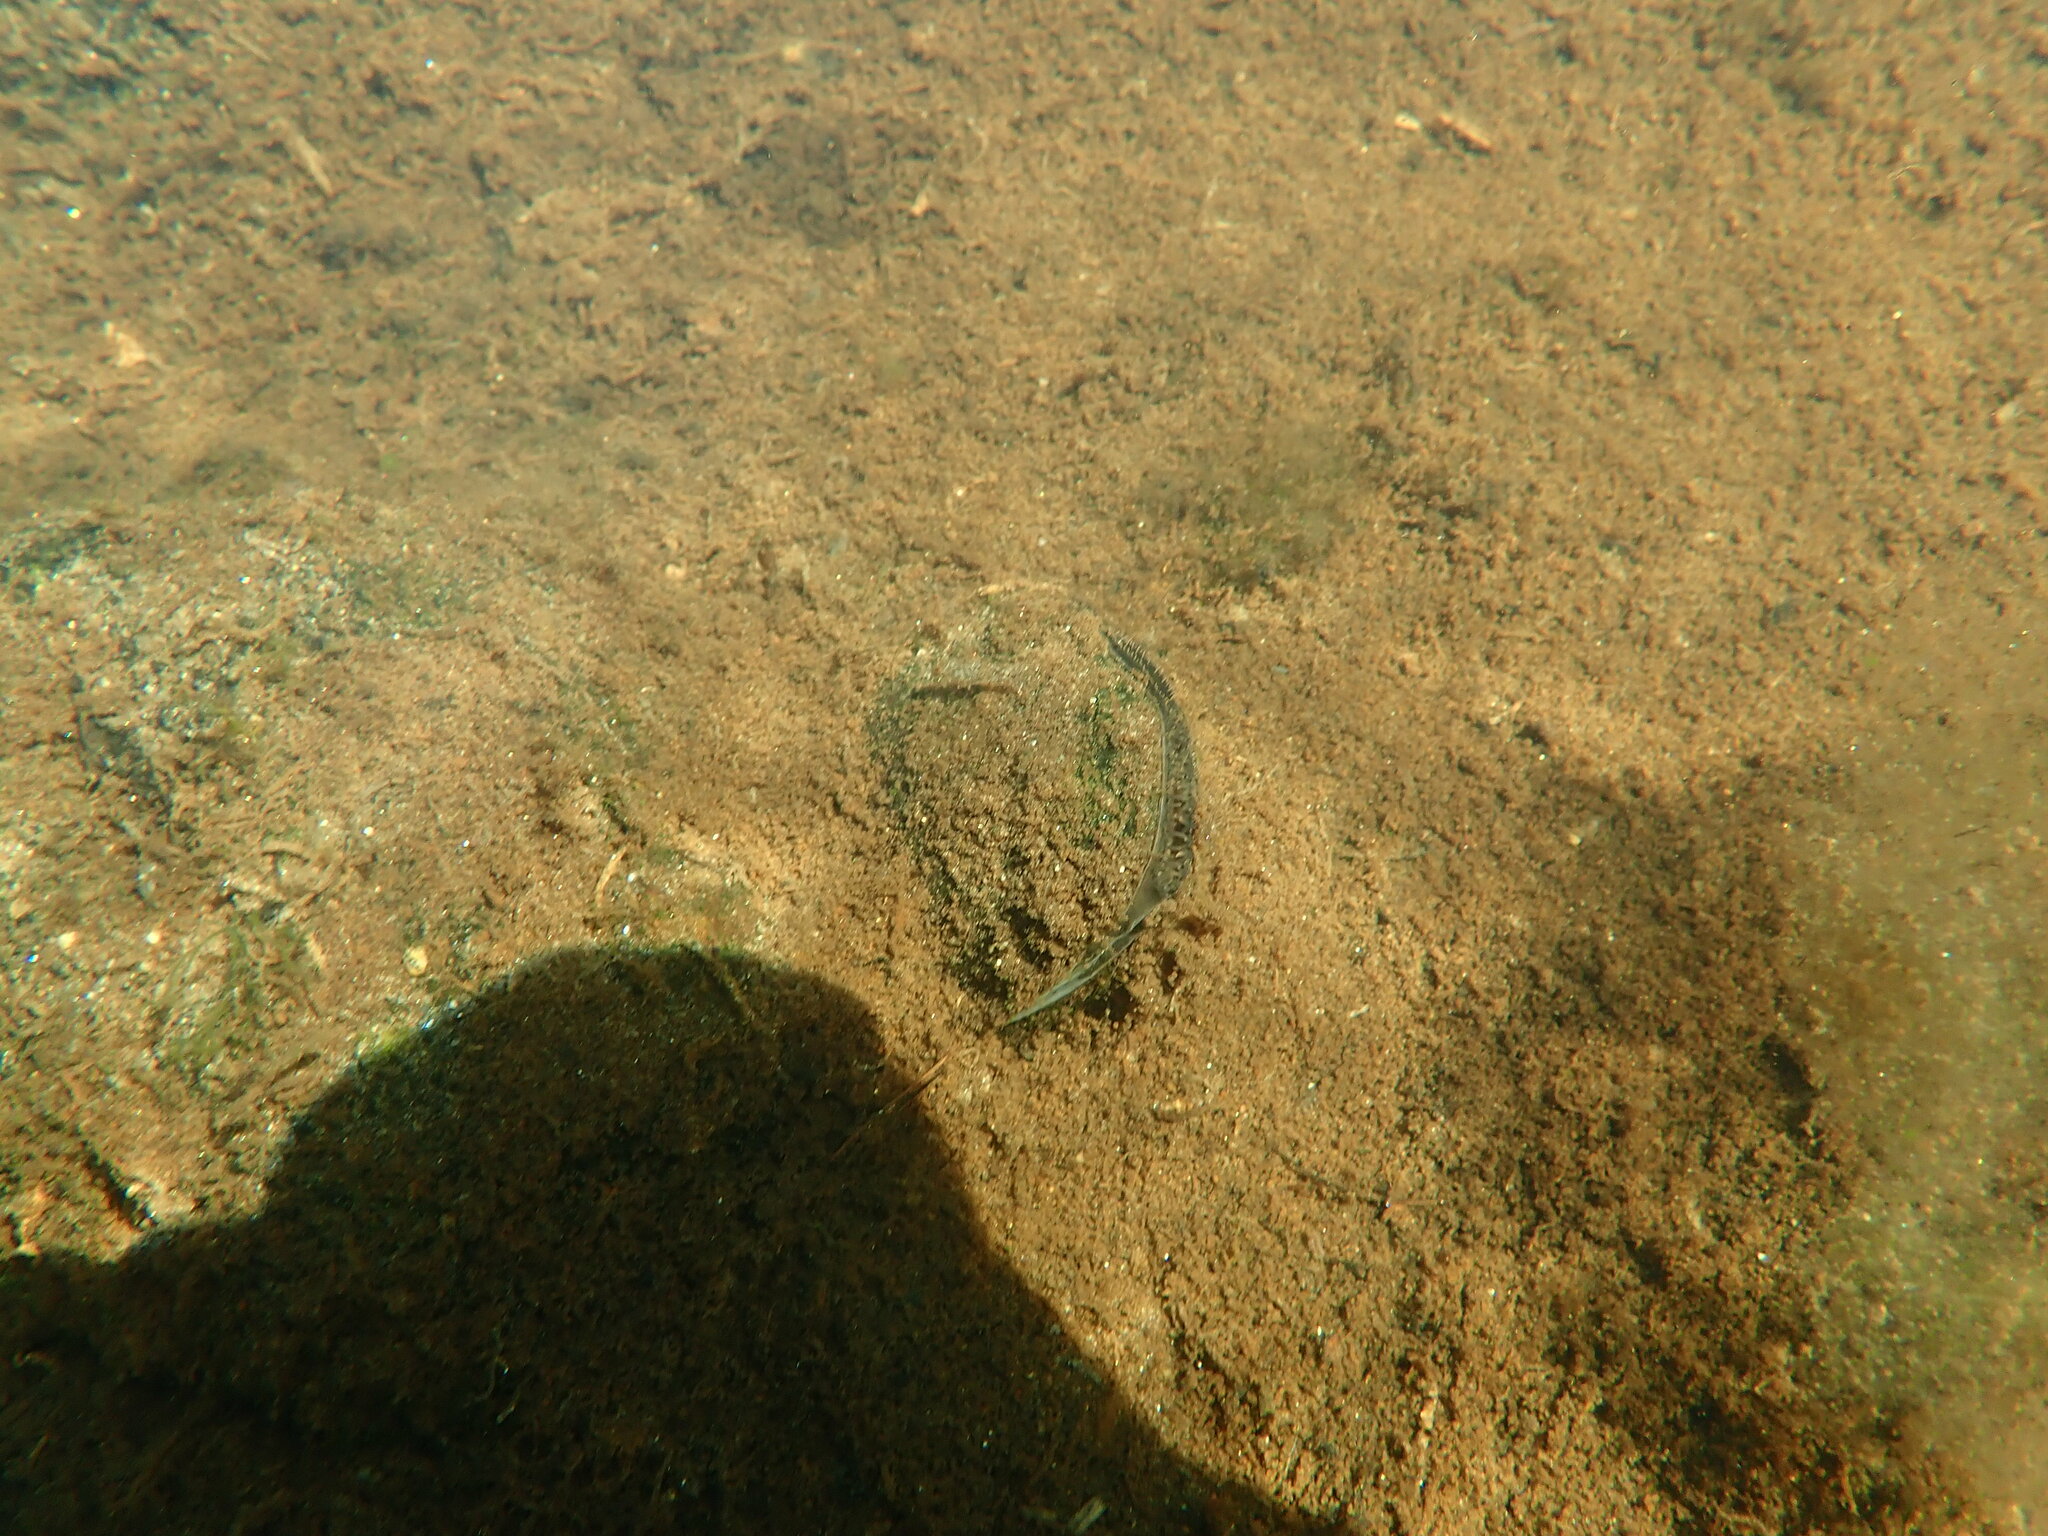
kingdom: Animalia
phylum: Mollusca
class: Bivalvia
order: Unionida
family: Unionidae
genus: Elliptio
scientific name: Elliptio complanata
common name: Eastern elliptio
